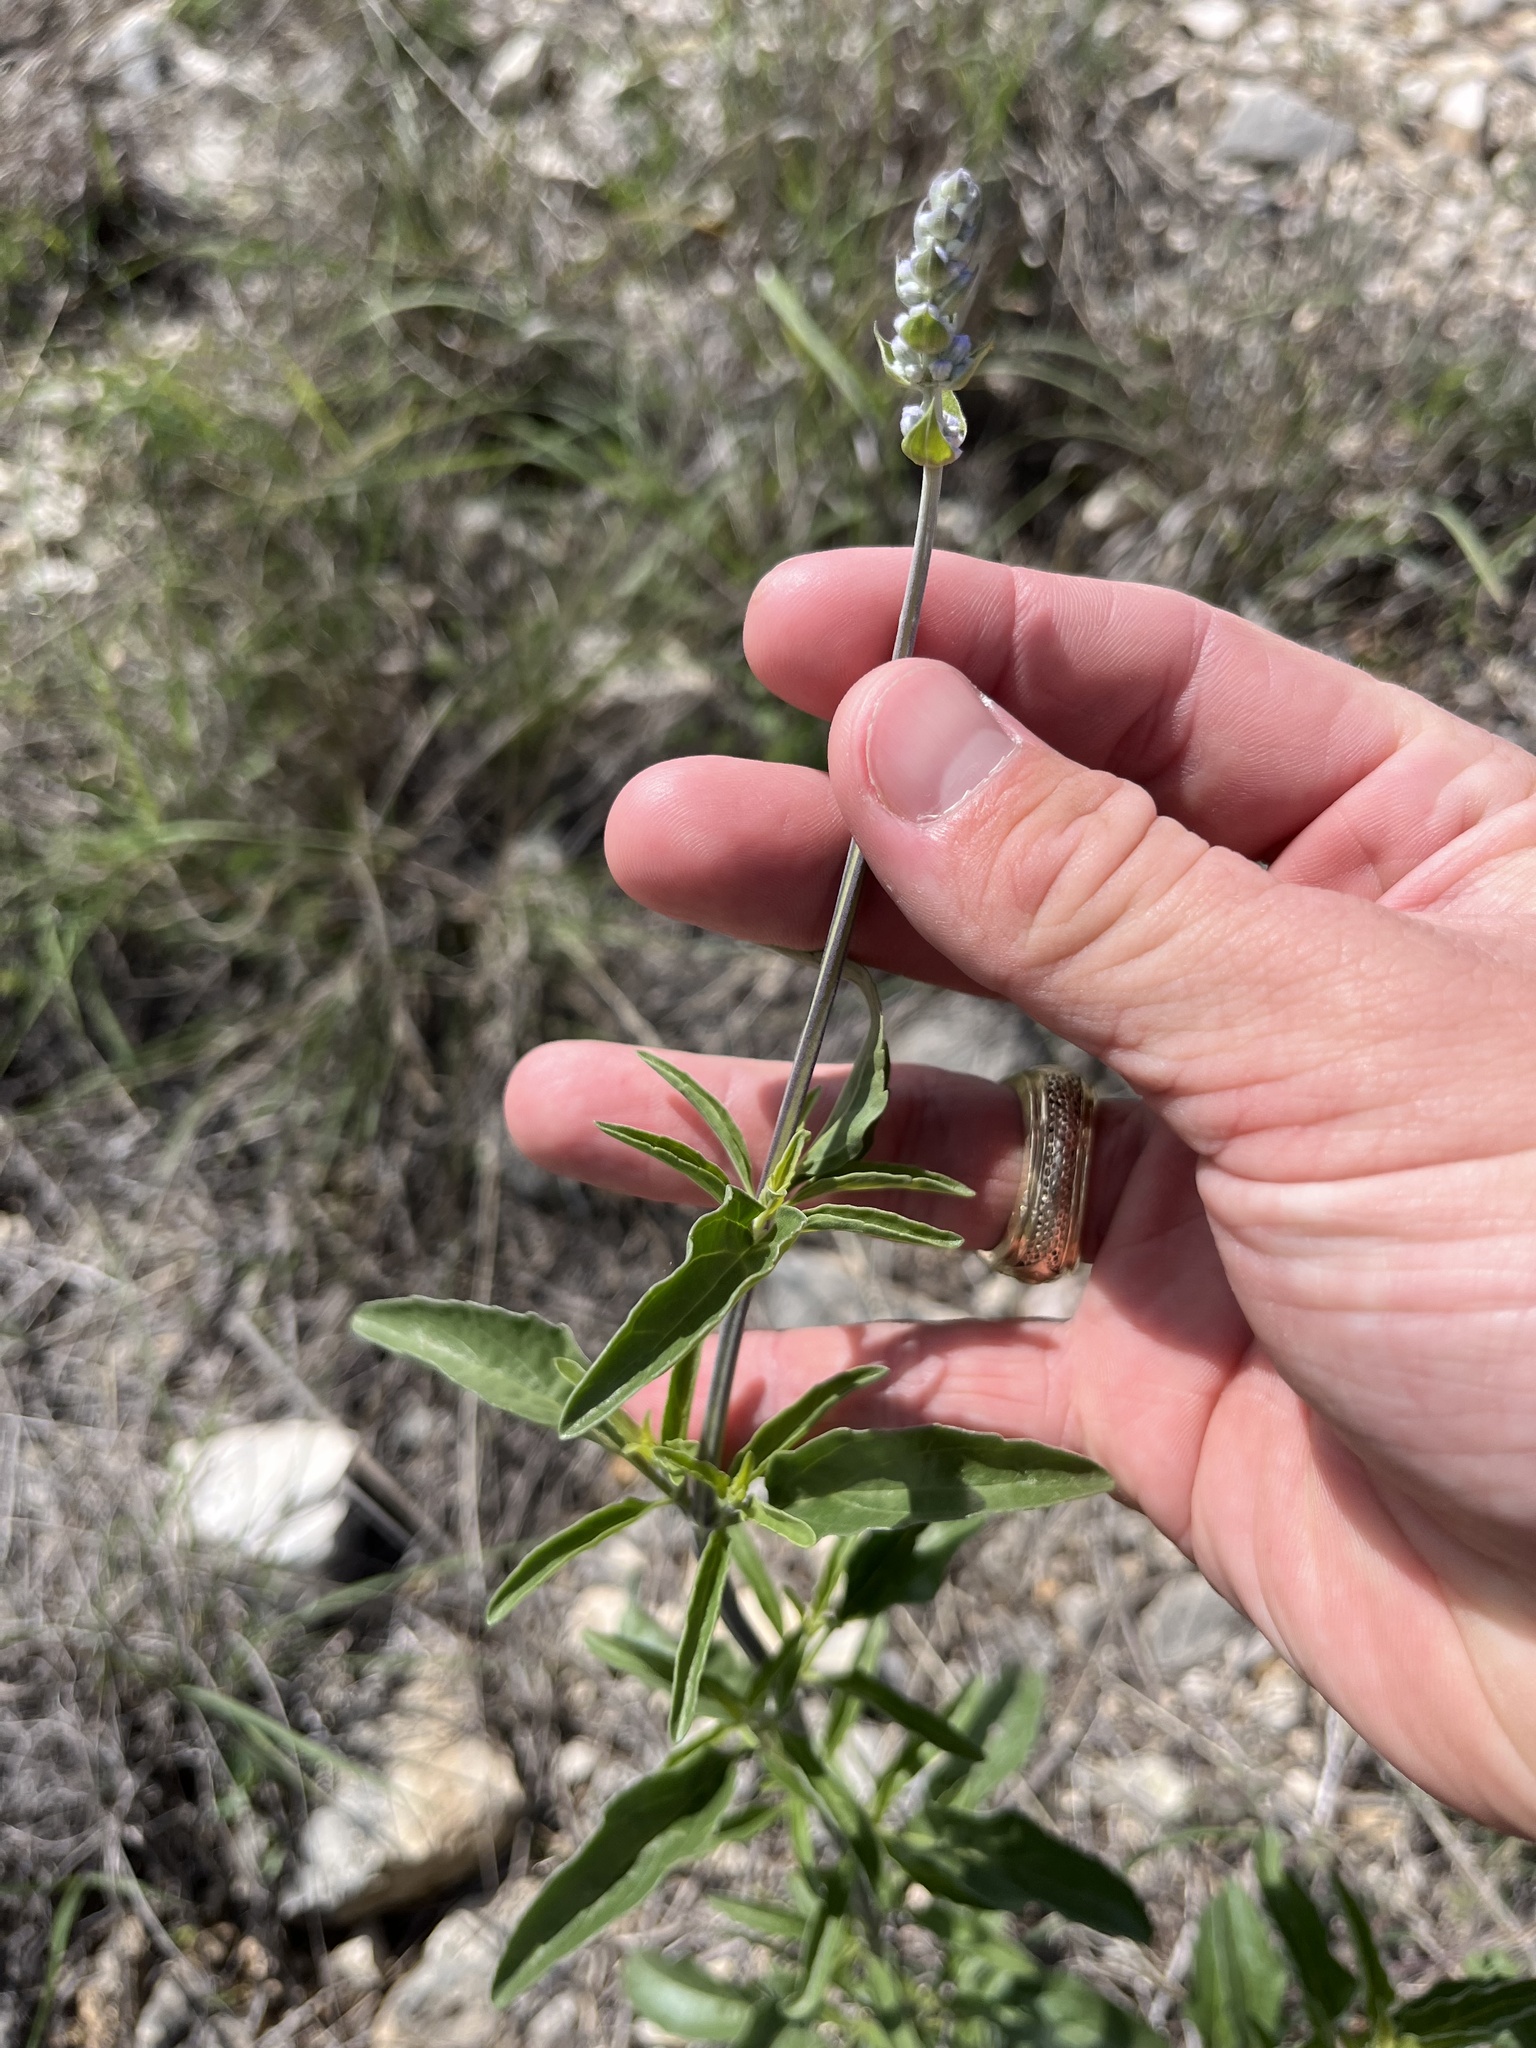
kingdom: Plantae
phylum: Tracheophyta
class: Magnoliopsida
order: Lamiales
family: Lamiaceae
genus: Salvia
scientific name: Salvia farinacea
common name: Mealy sage
